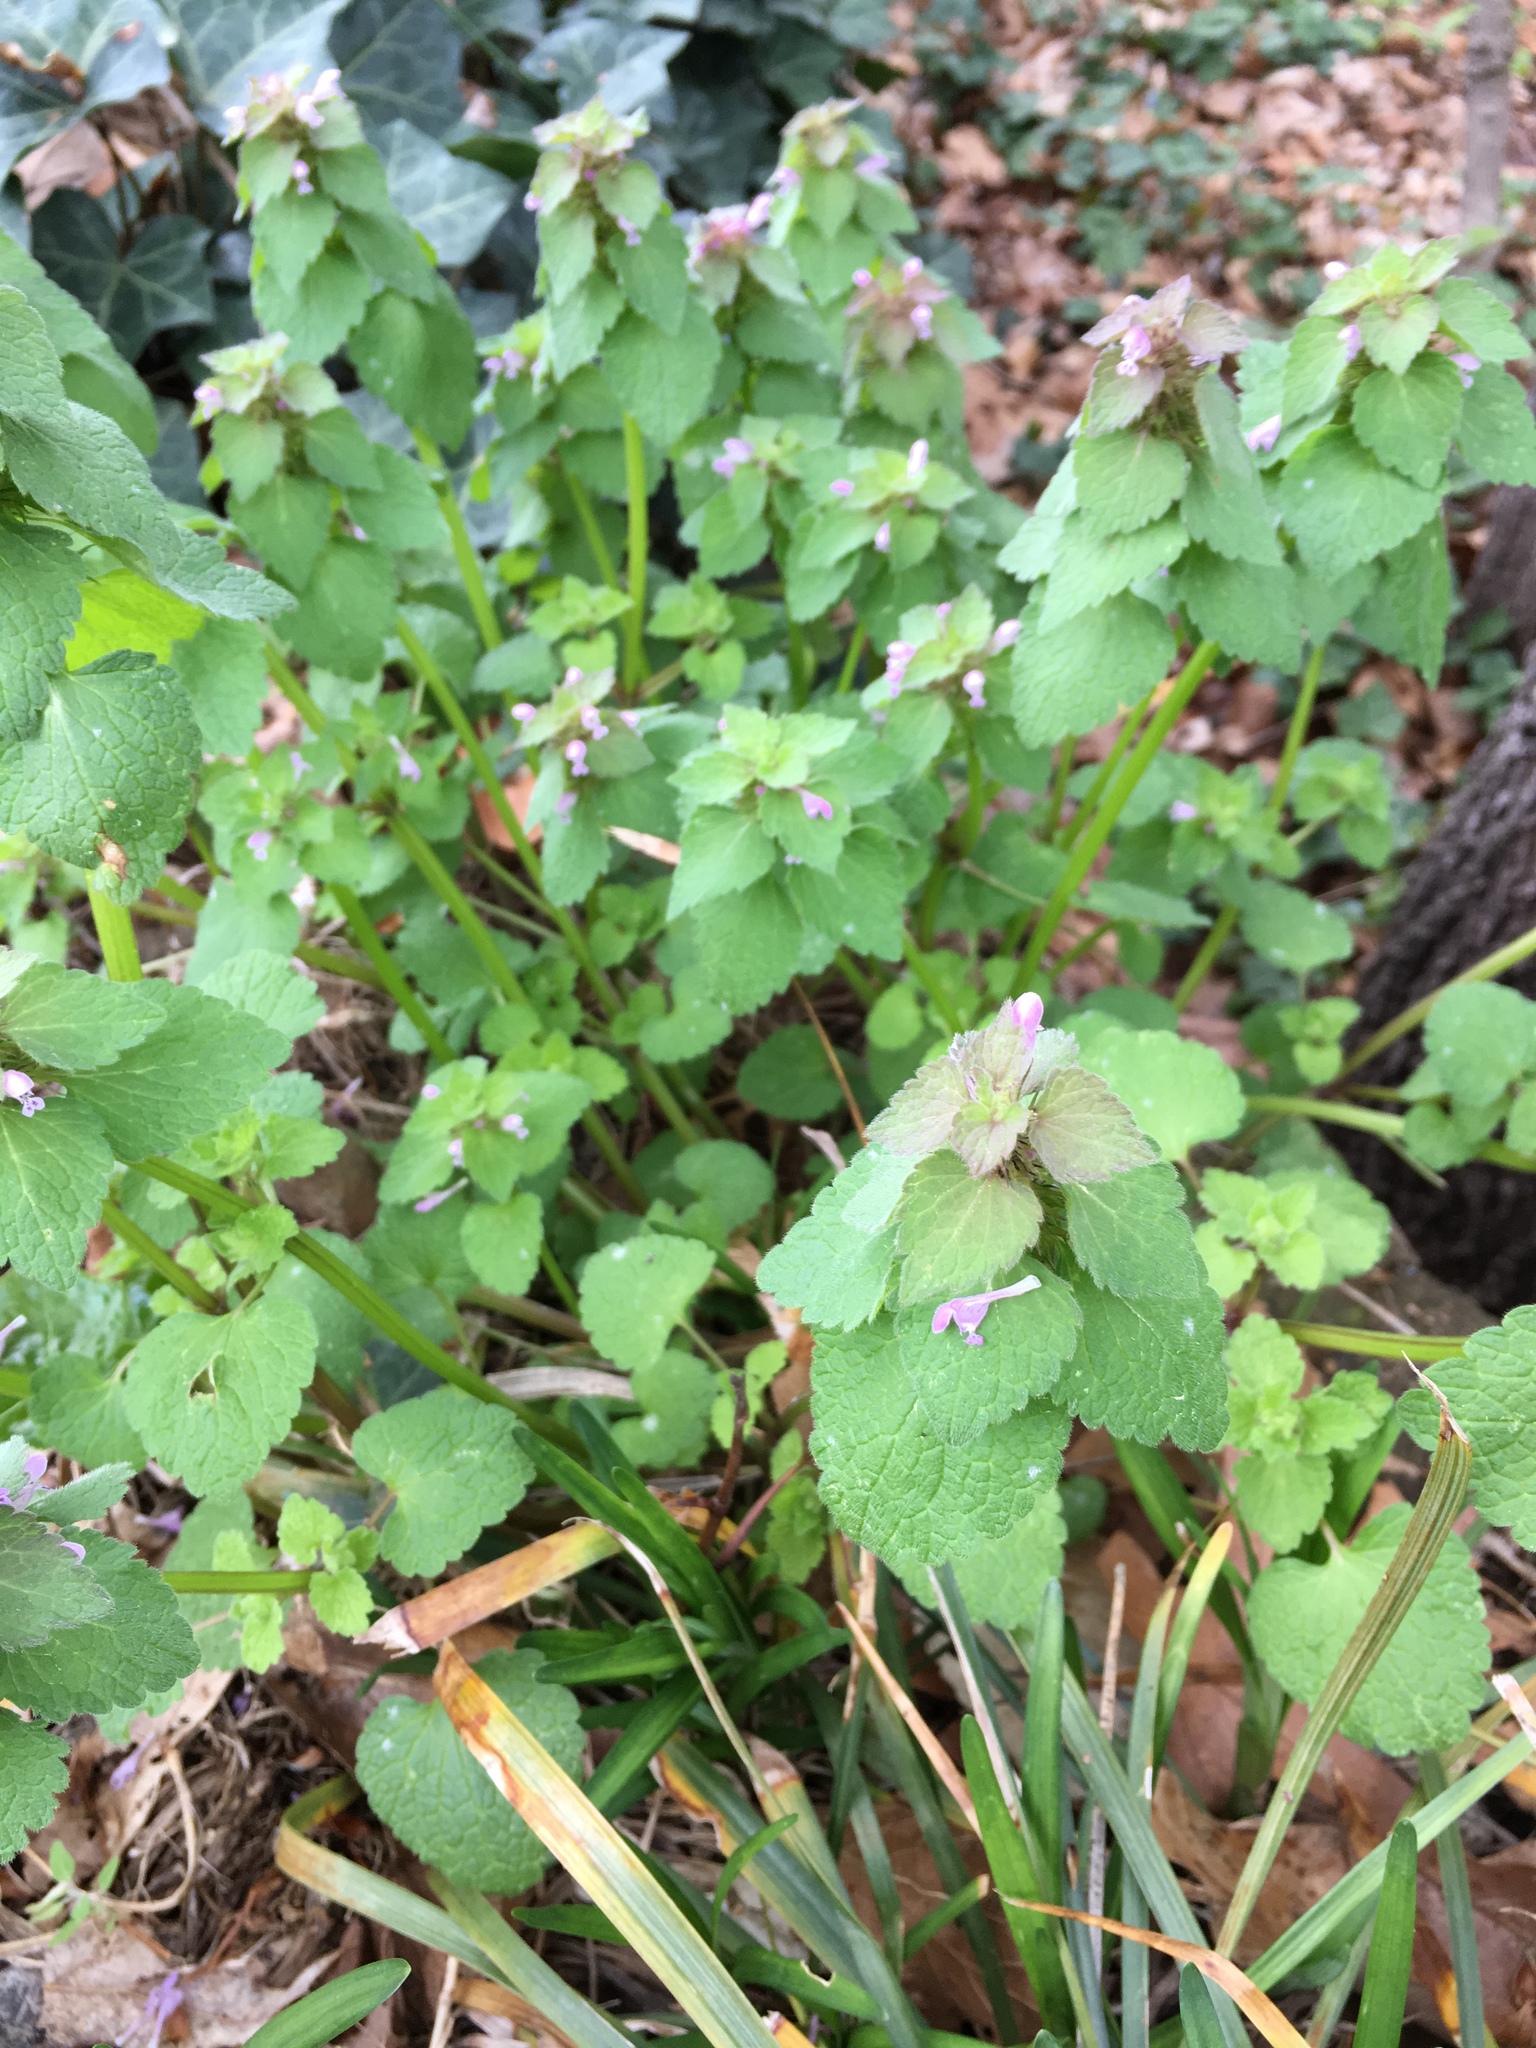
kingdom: Plantae
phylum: Tracheophyta
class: Magnoliopsida
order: Lamiales
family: Lamiaceae
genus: Lamium
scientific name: Lamium purpureum
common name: Red dead-nettle
